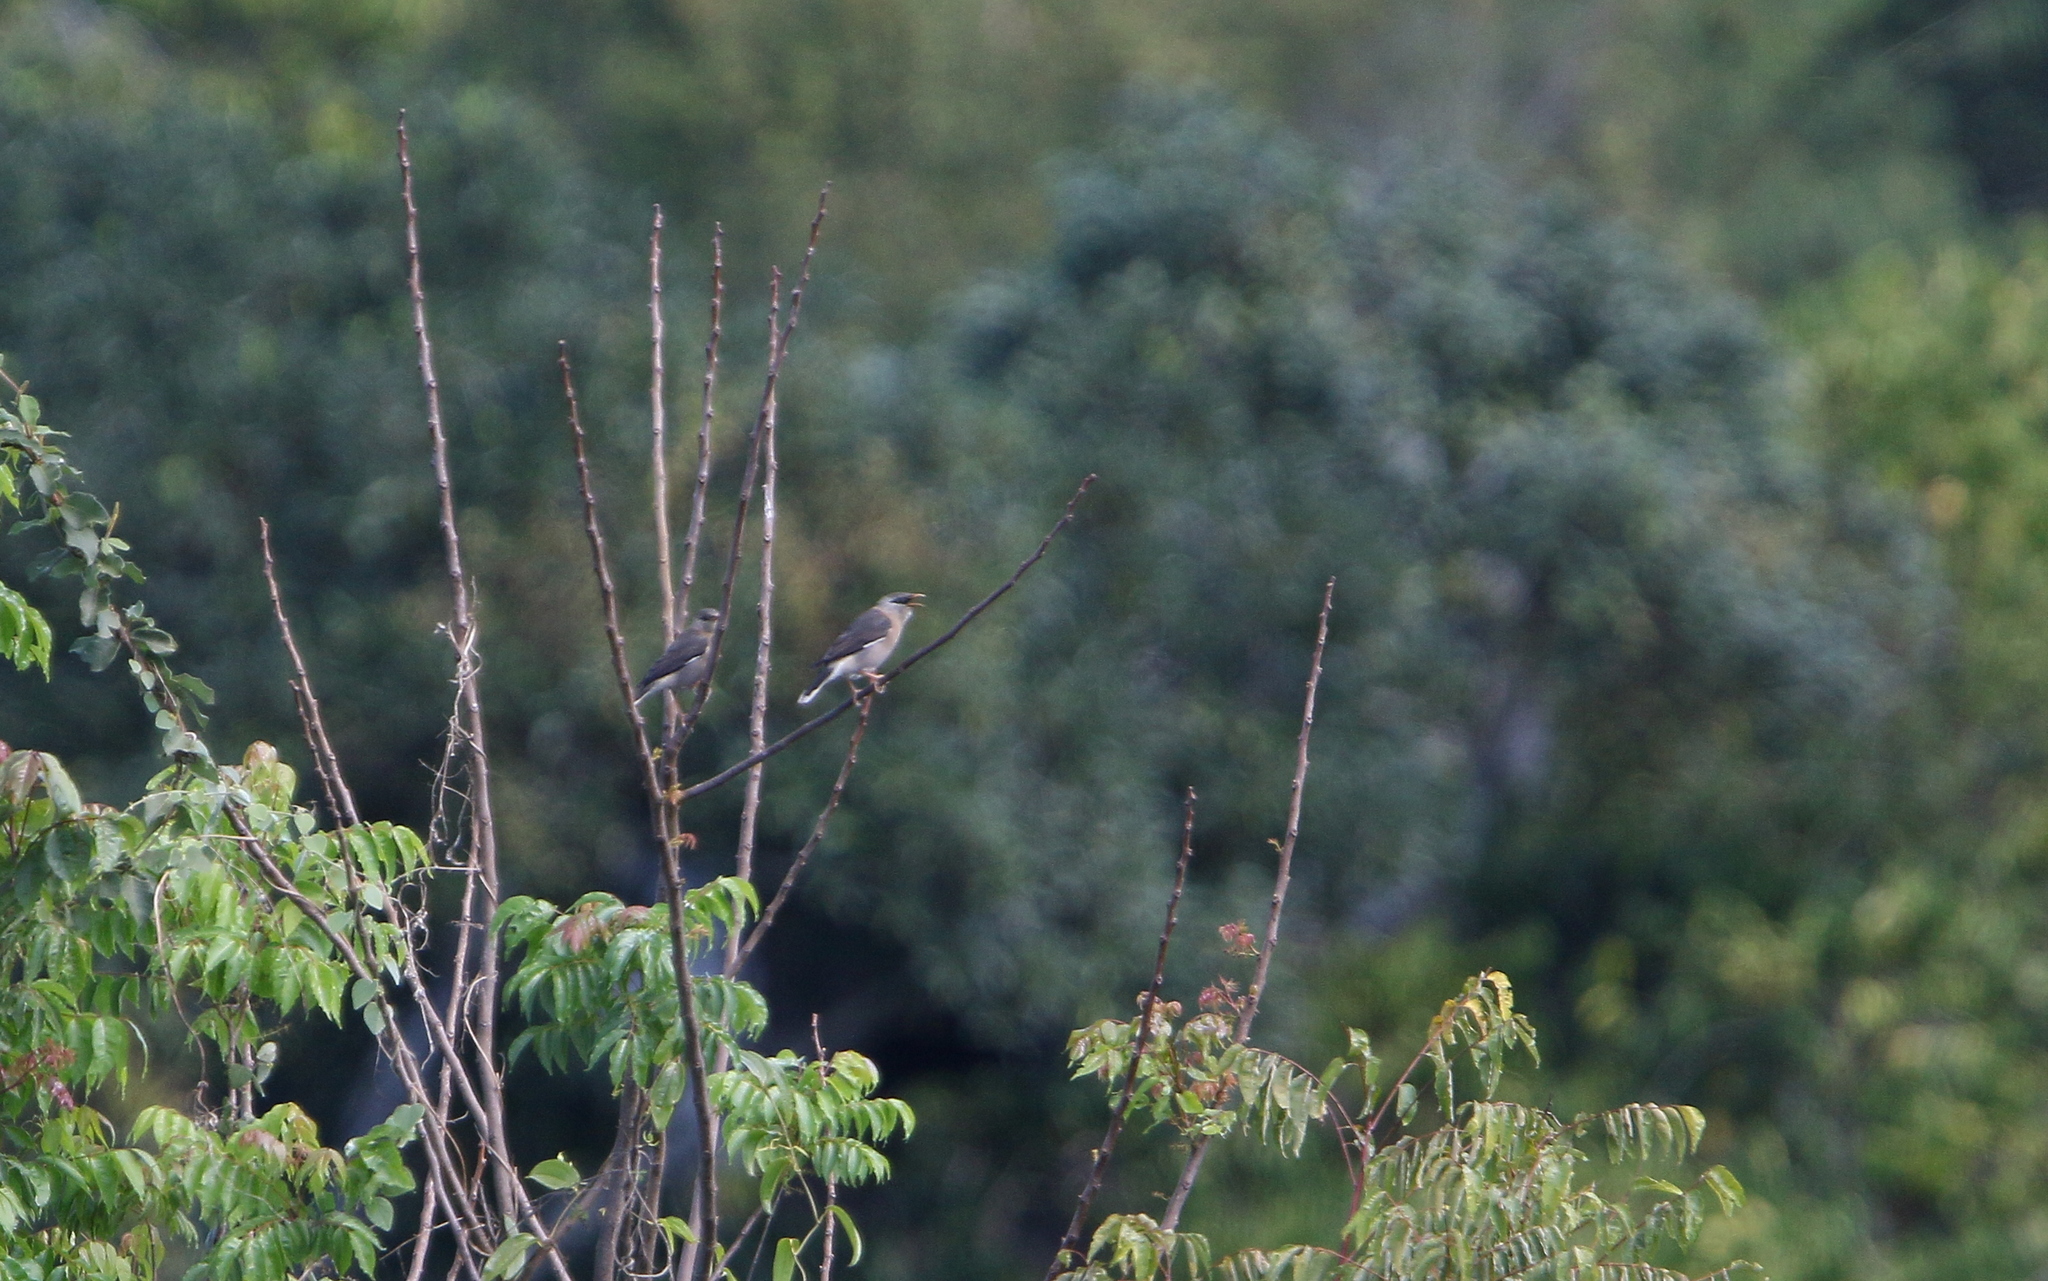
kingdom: Animalia
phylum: Chordata
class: Aves
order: Passeriformes
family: Sturnidae
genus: Acridotheres
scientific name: Acridotheres leucocephalus
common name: Vinous-breasted myna
